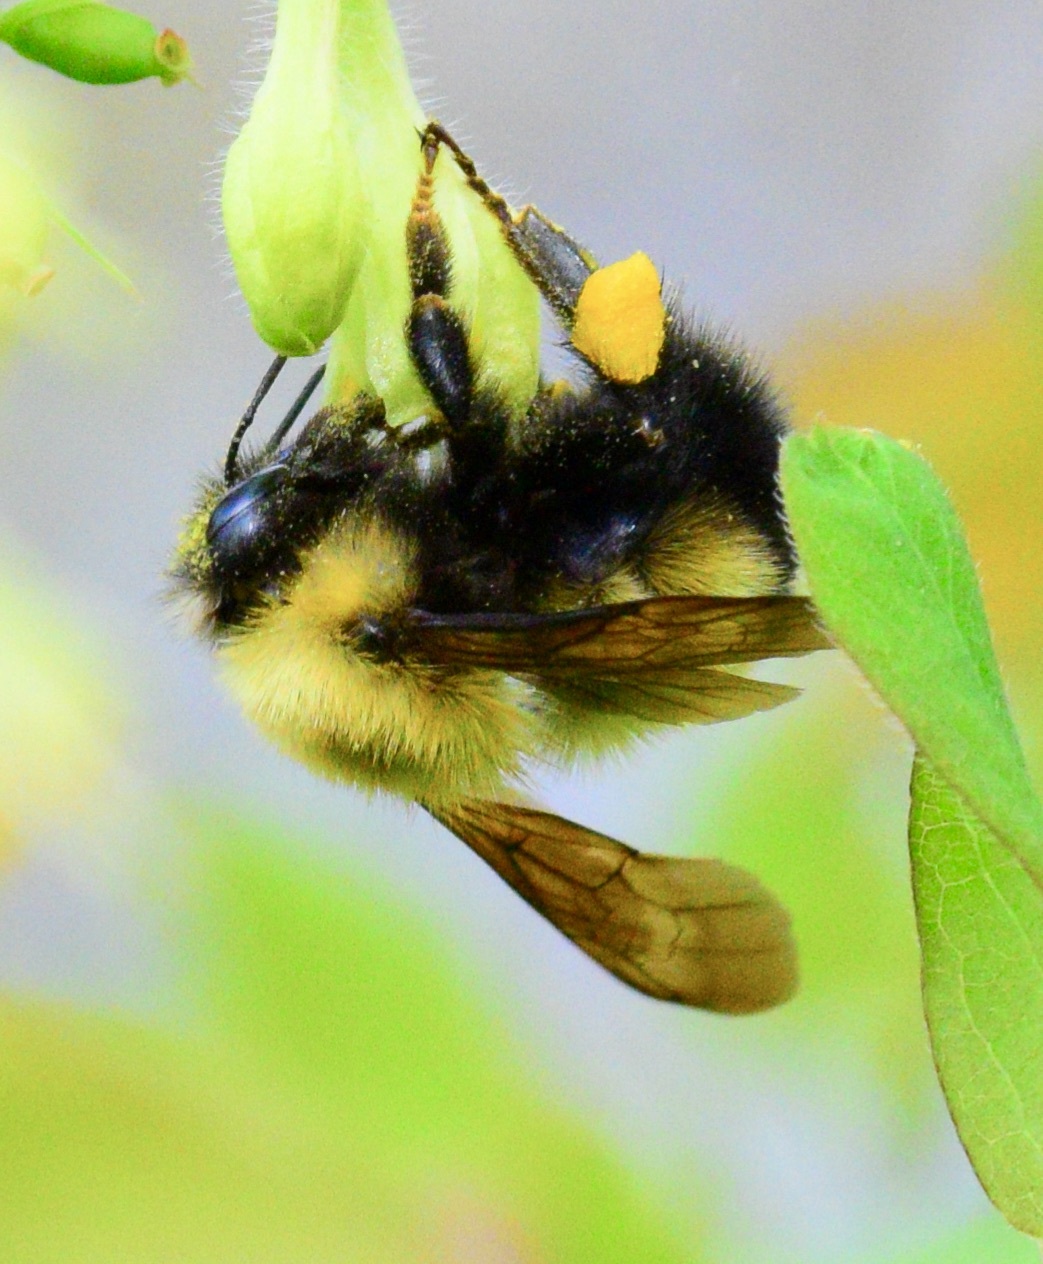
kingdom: Animalia
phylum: Arthropoda
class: Insecta
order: Hymenoptera
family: Apidae
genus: Bombus
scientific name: Bombus perplexus
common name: Confusing bumble bee
